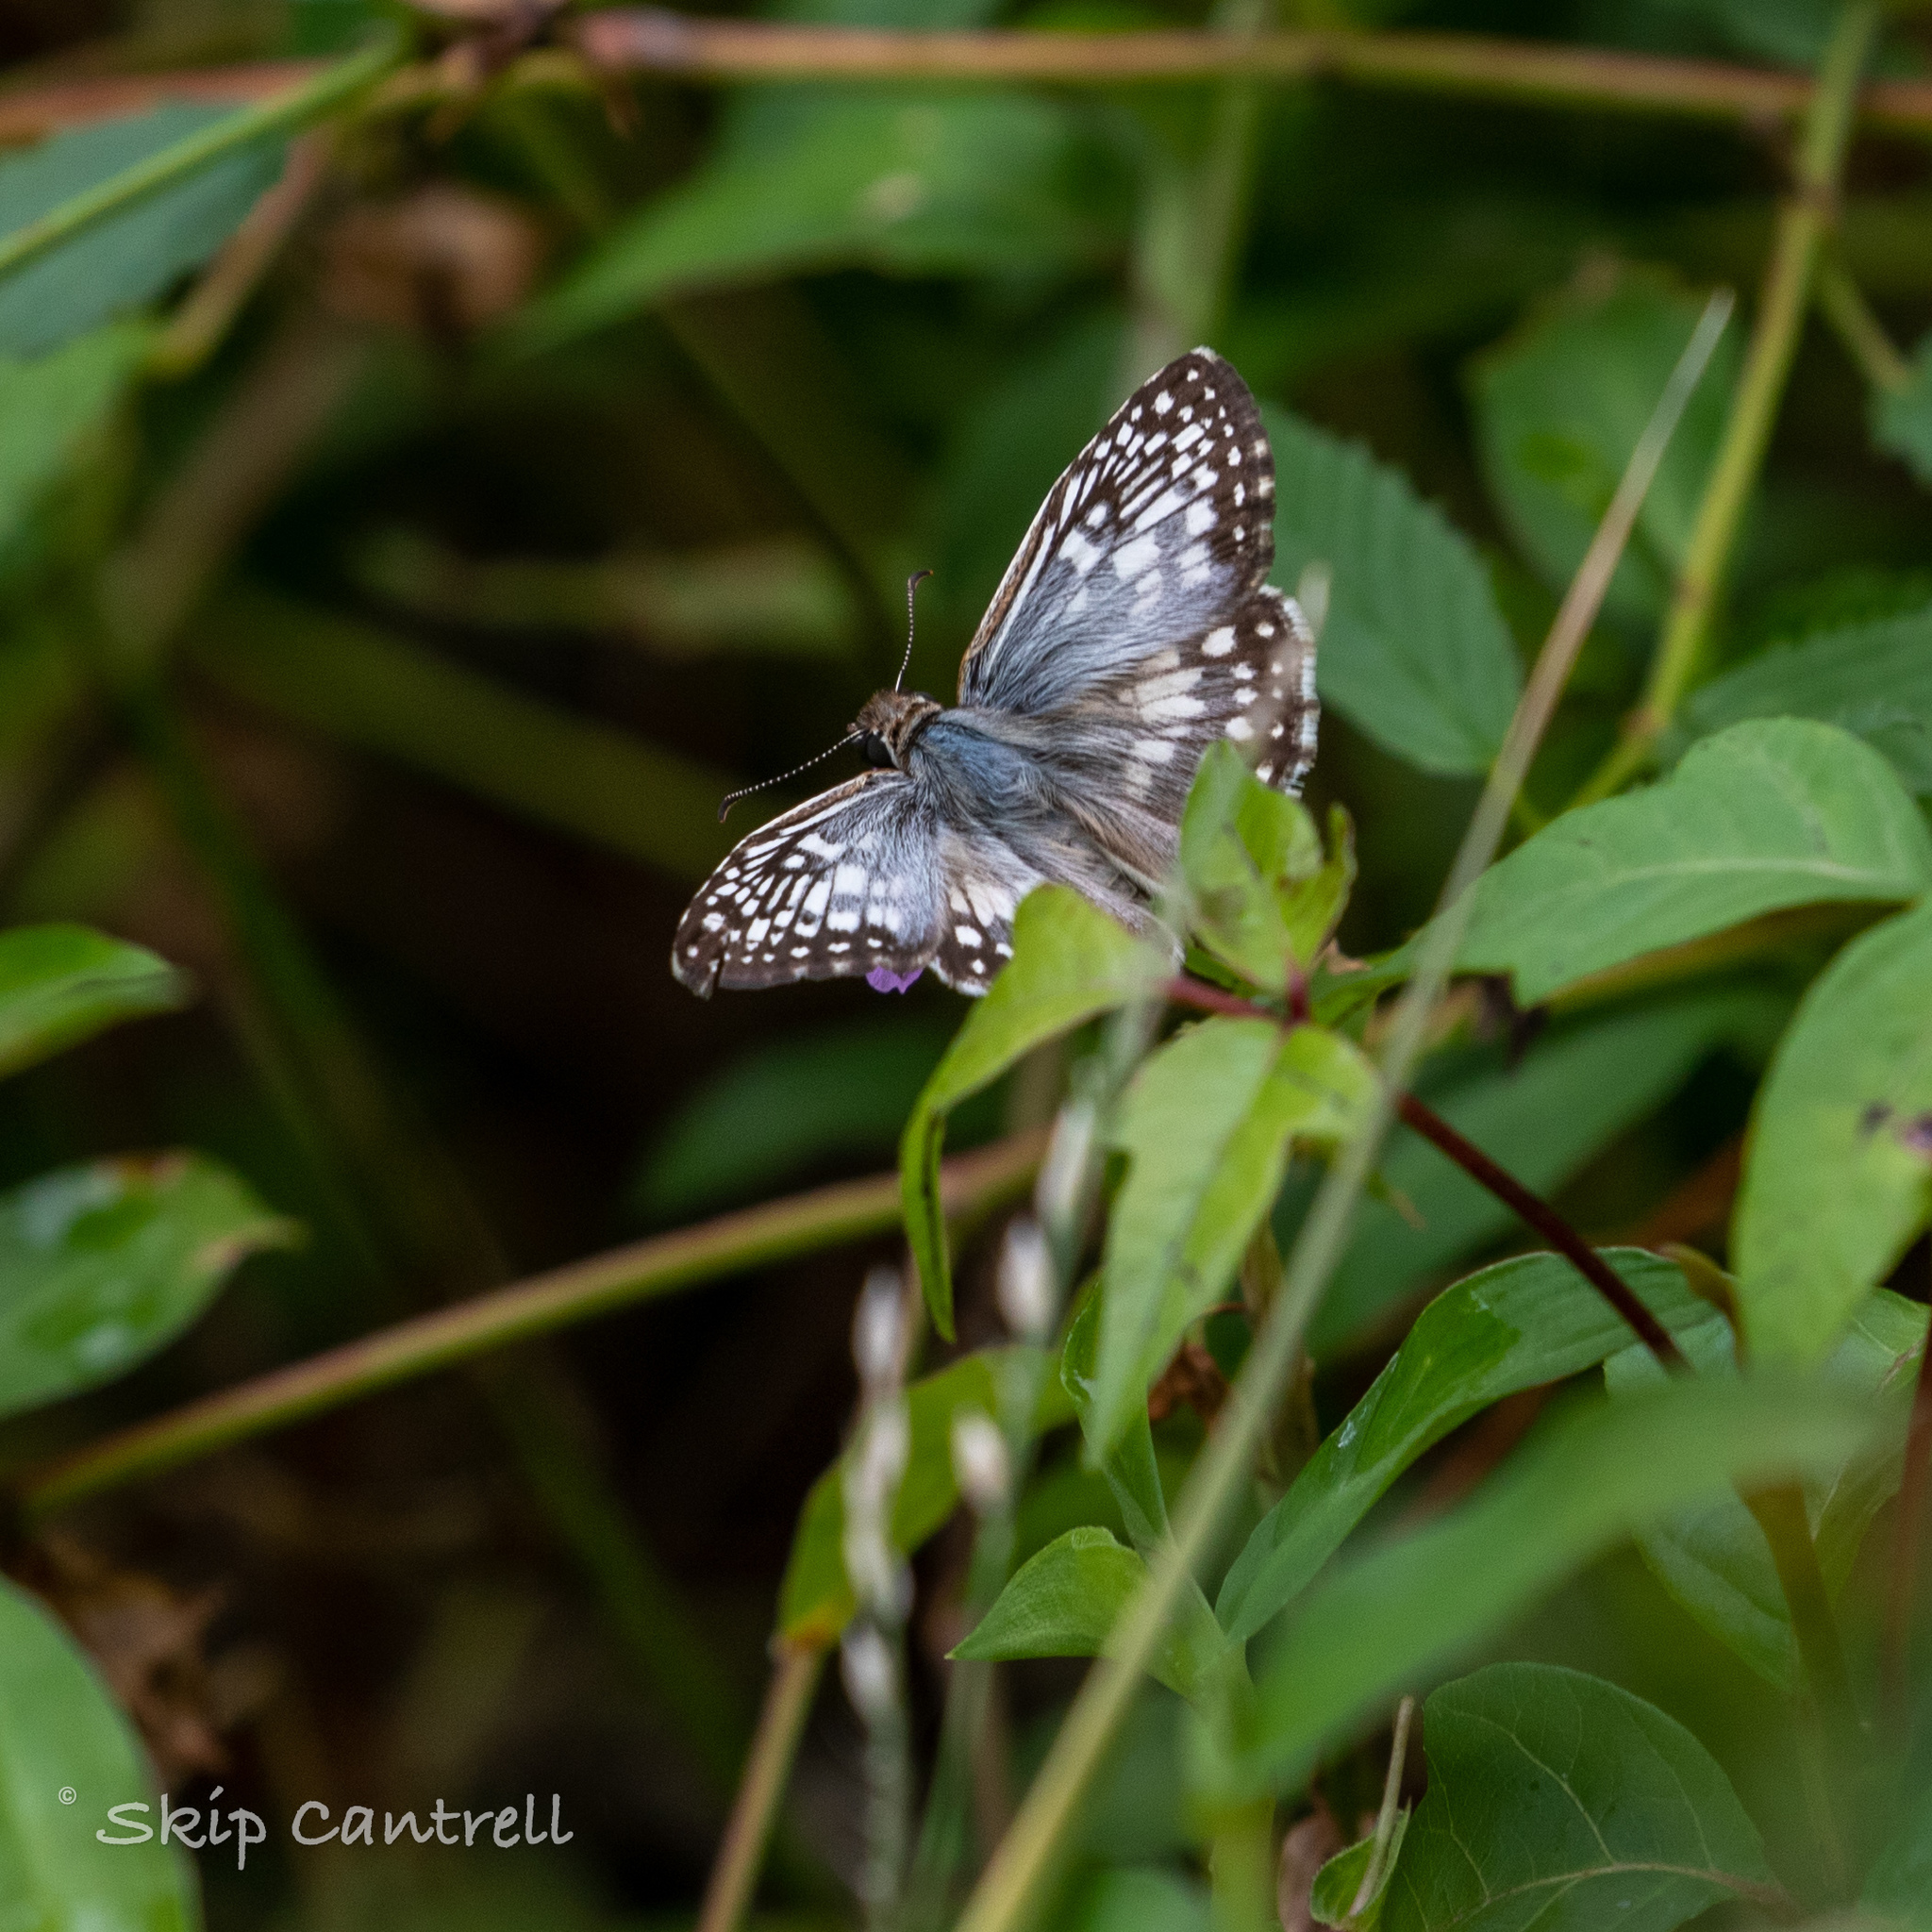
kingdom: Animalia
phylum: Arthropoda
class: Insecta
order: Lepidoptera
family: Hesperiidae
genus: Pyrgus
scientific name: Pyrgus oileus
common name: Tropical checkered-skipper
